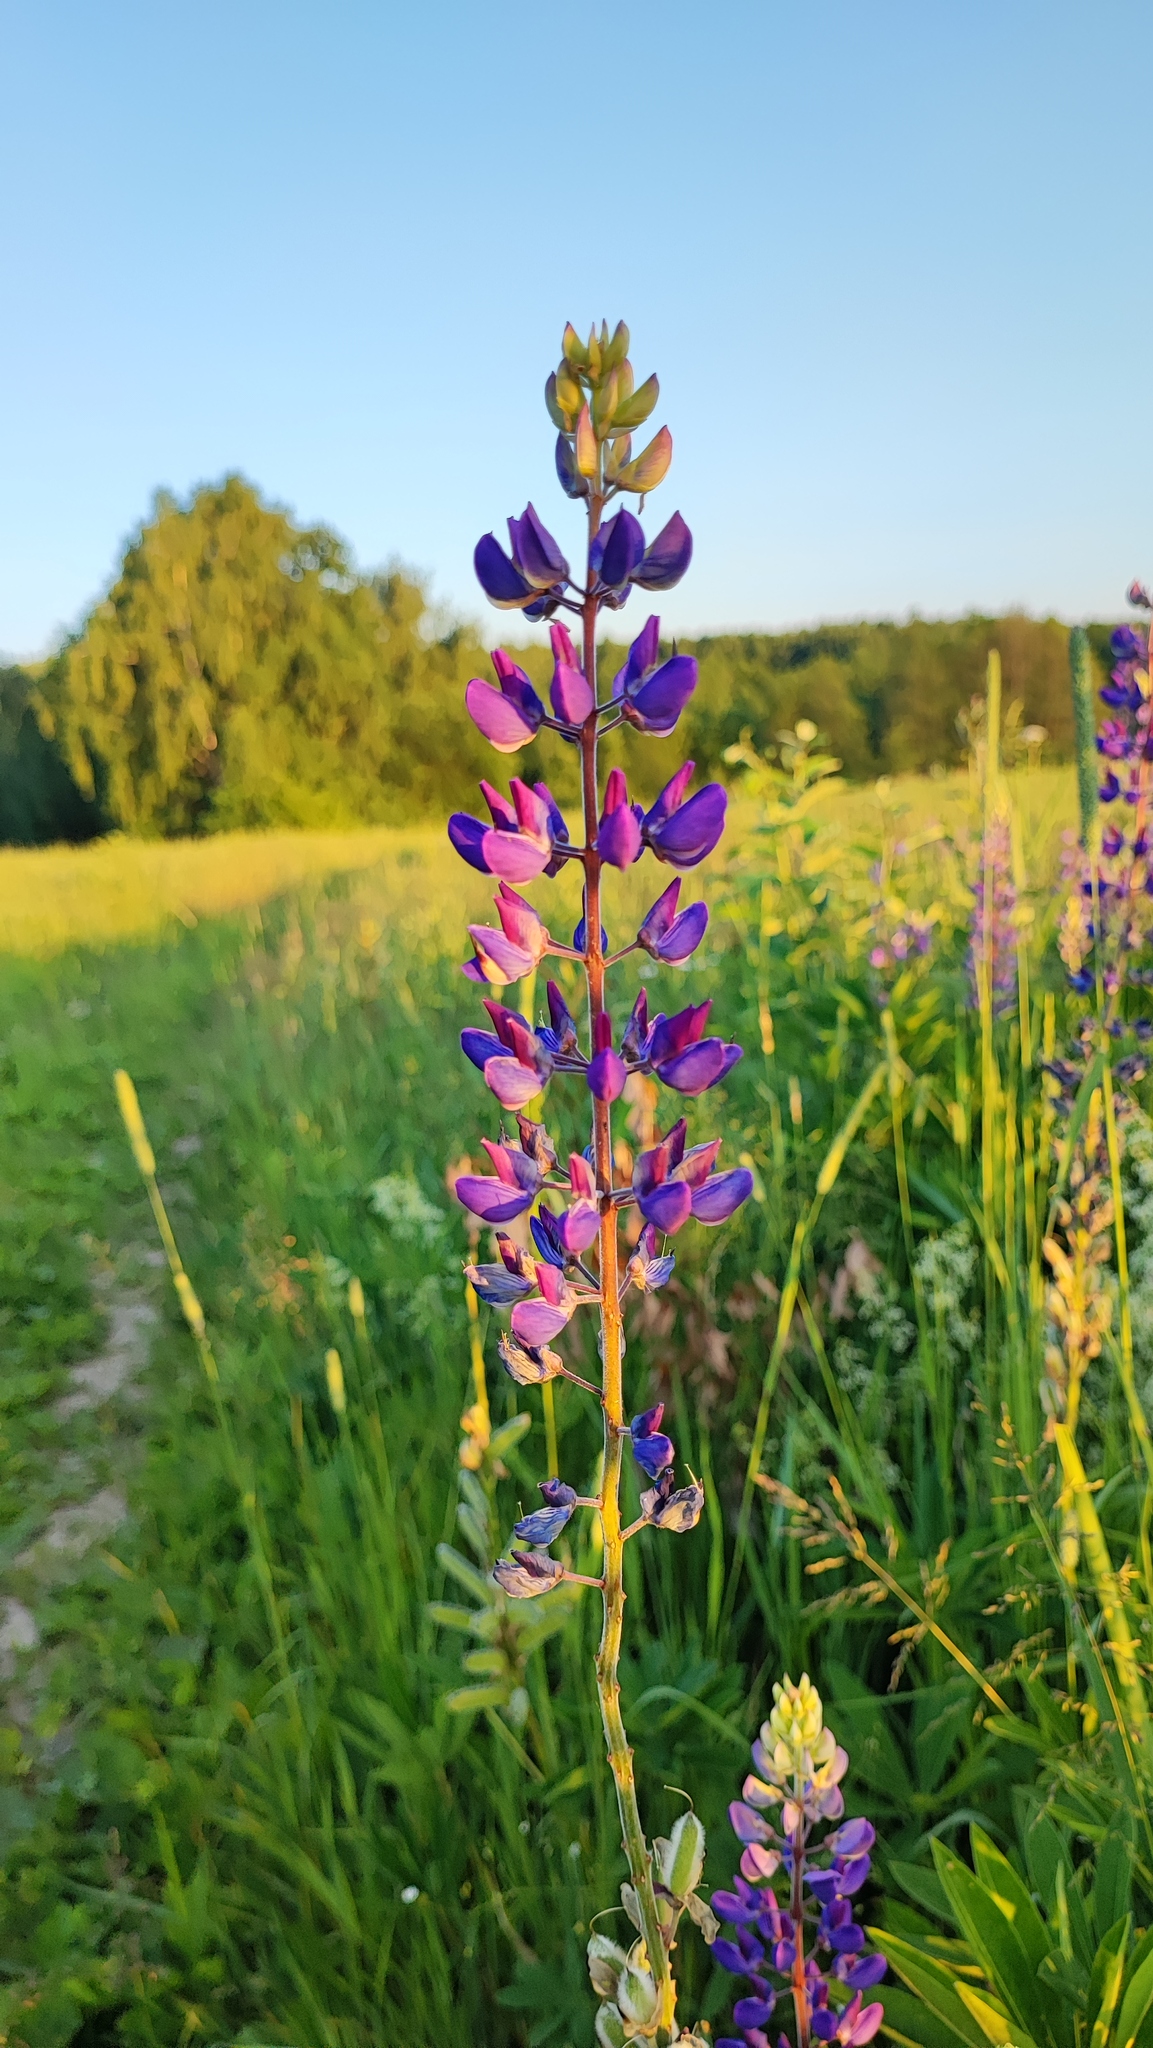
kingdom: Plantae
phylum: Tracheophyta
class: Magnoliopsida
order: Fabales
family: Fabaceae
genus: Lupinus
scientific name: Lupinus polyphyllus
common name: Garden lupin
